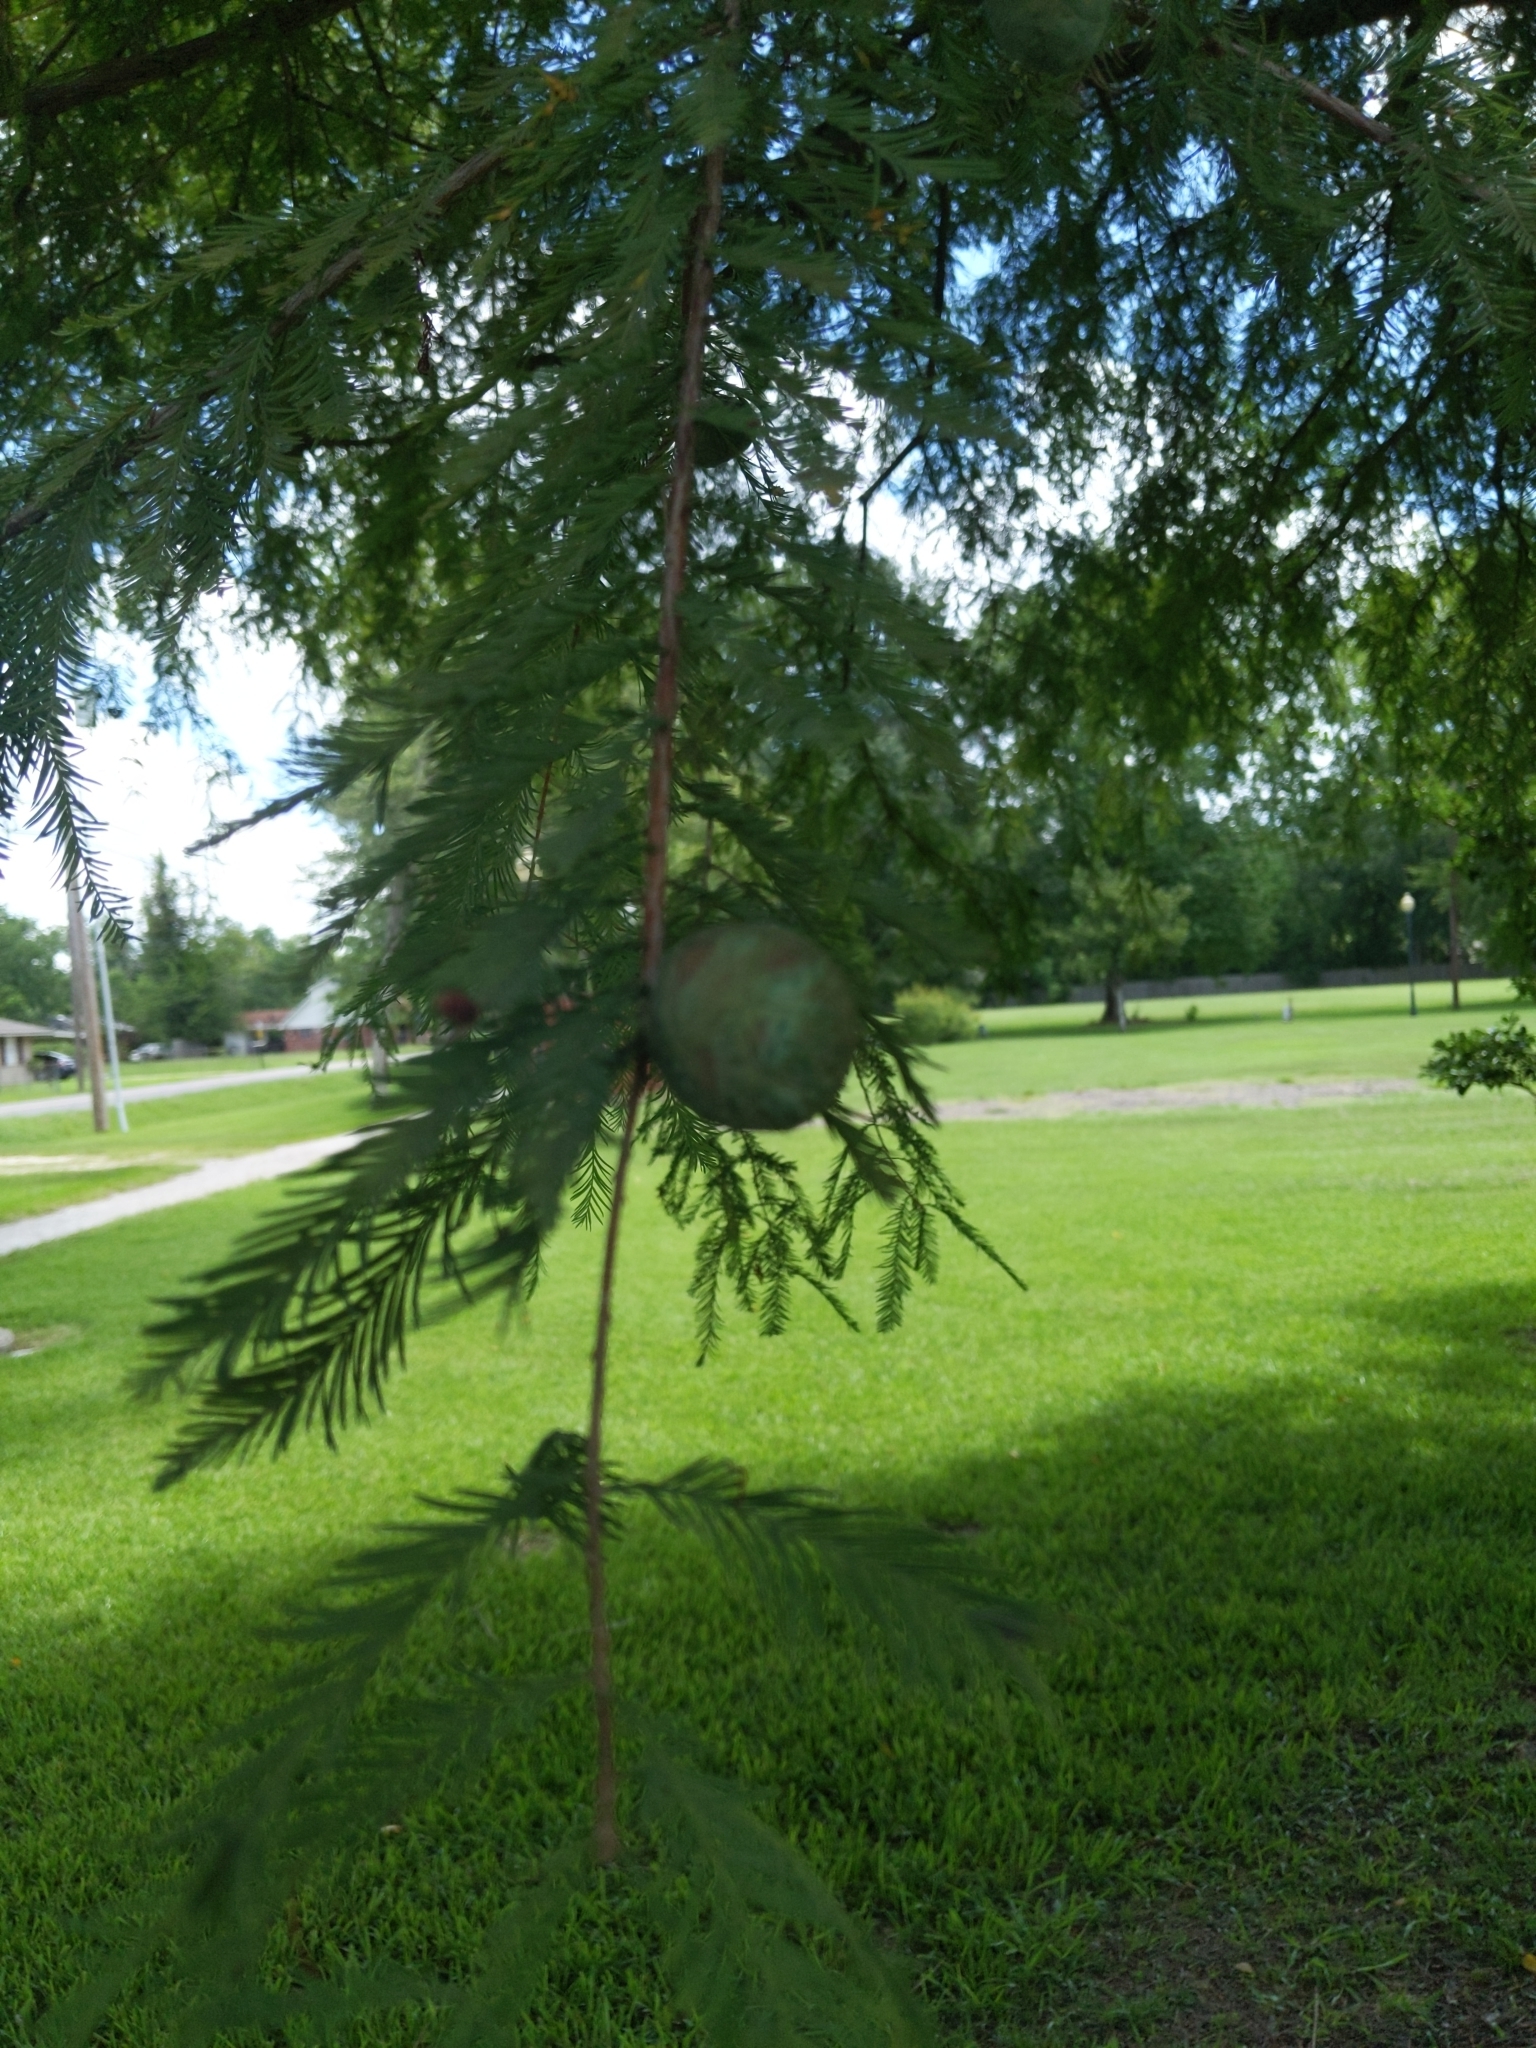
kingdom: Plantae
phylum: Tracheophyta
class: Pinopsida
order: Pinales
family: Cupressaceae
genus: Taxodium
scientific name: Taxodium distichum
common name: Bald cypress
